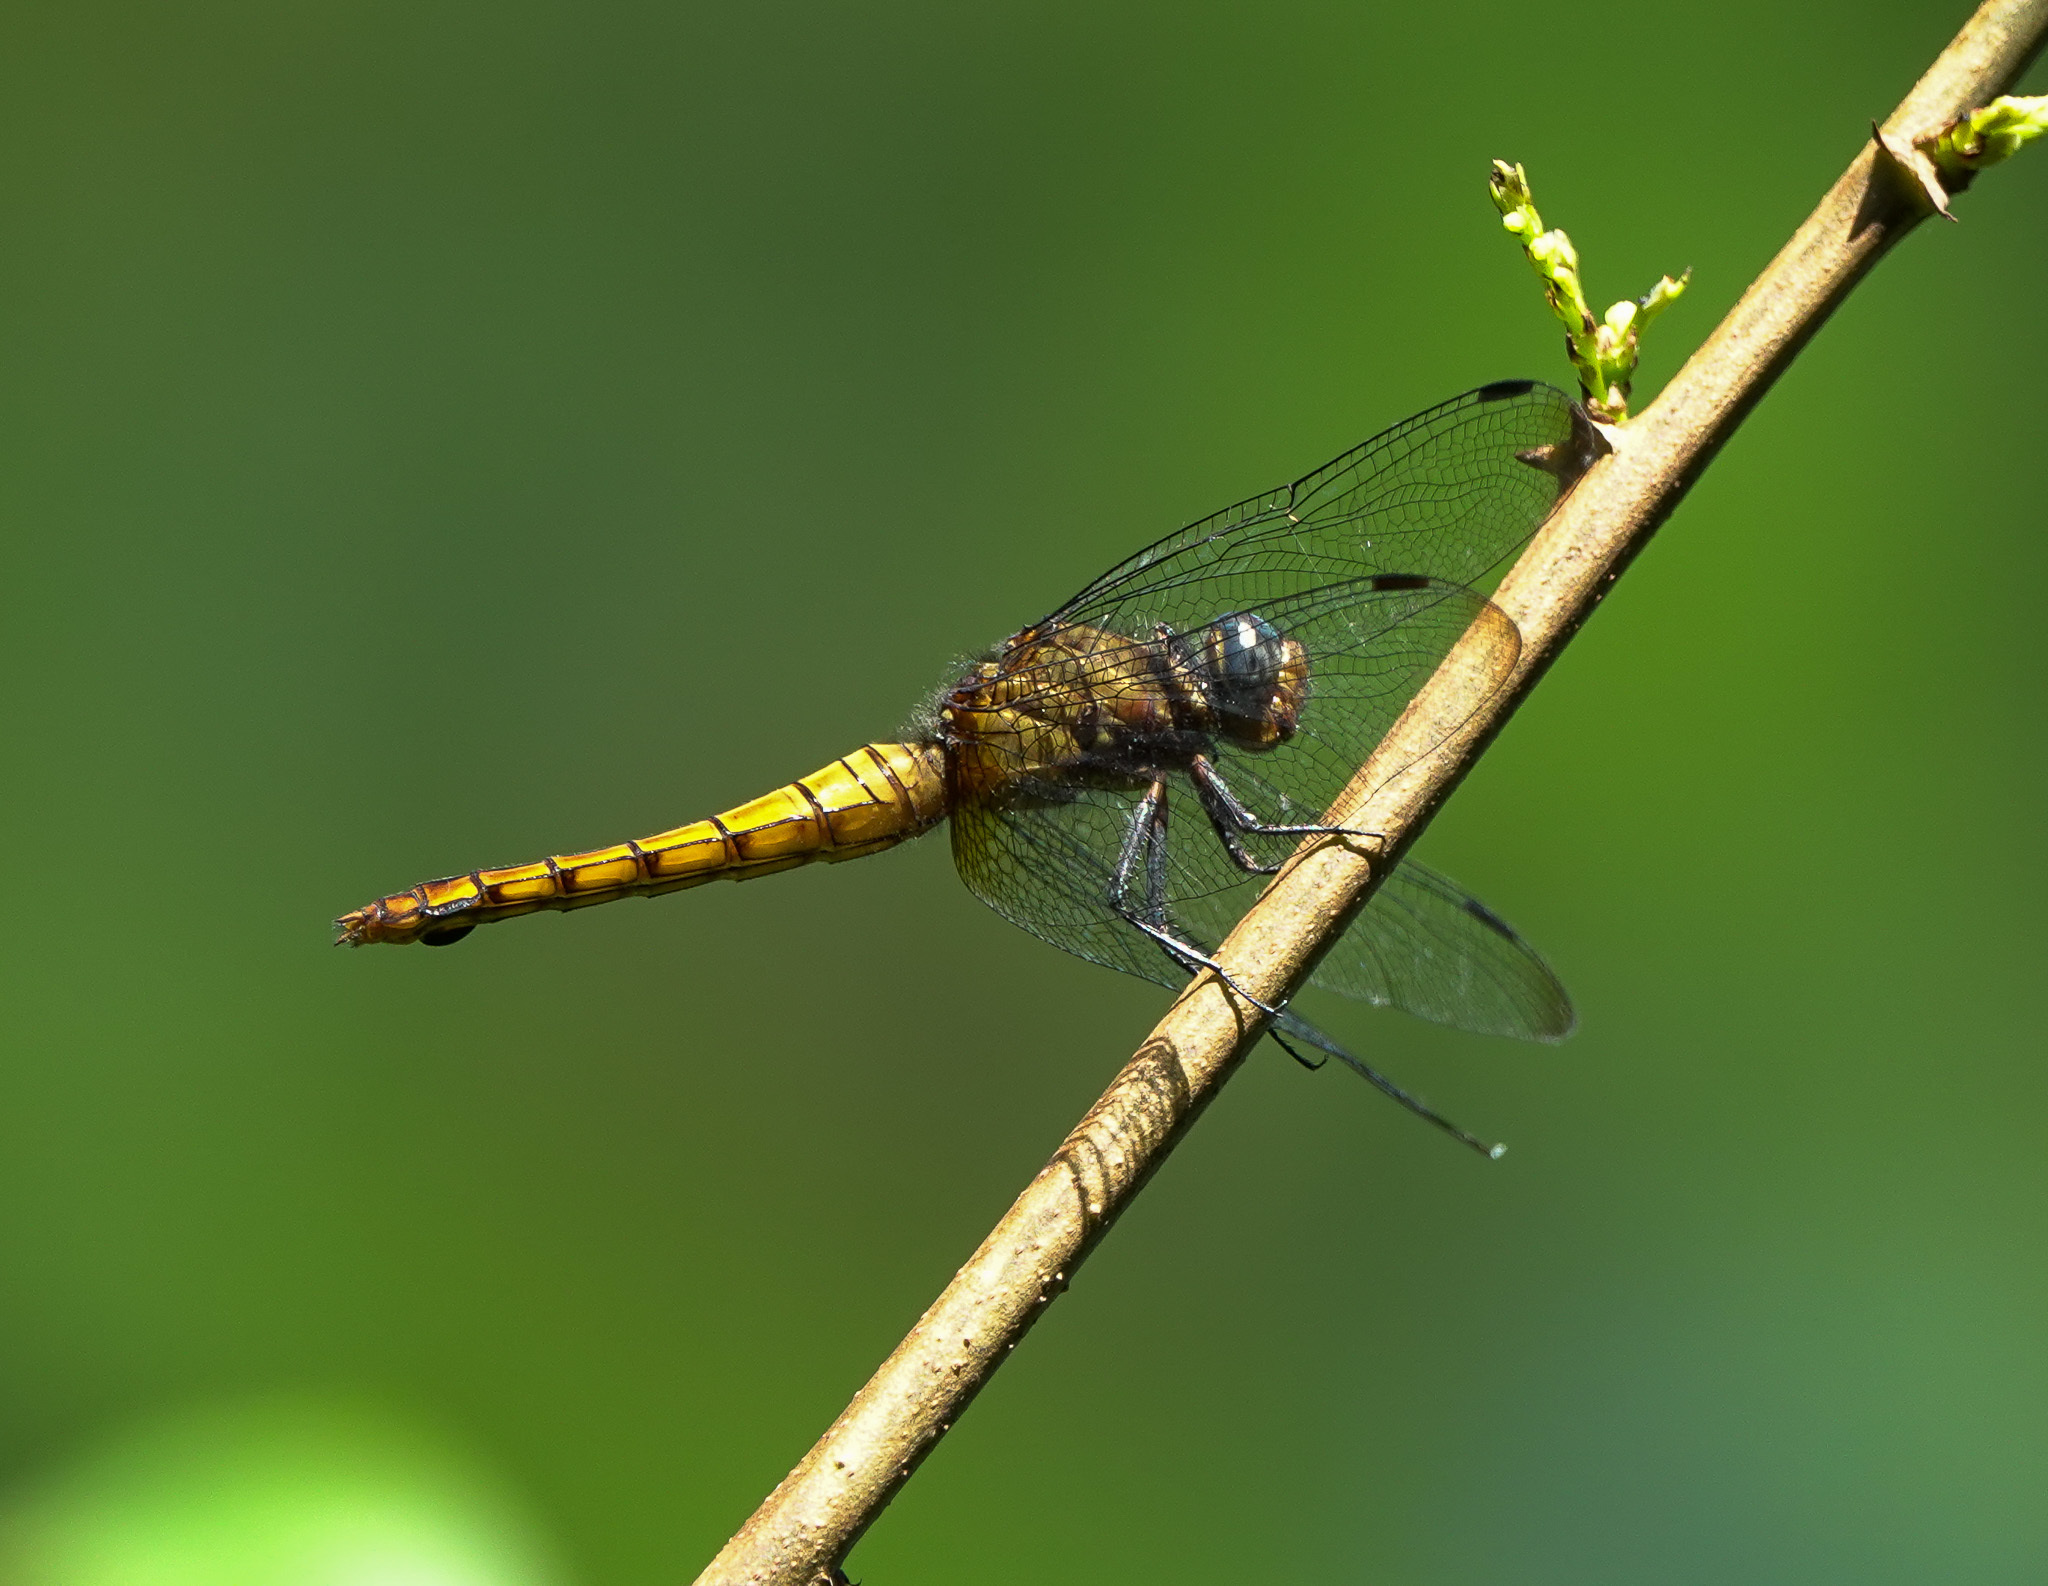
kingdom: Animalia
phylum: Arthropoda
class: Insecta
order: Odonata
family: Libellulidae
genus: Orthetrum
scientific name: Orthetrum pruinosum
